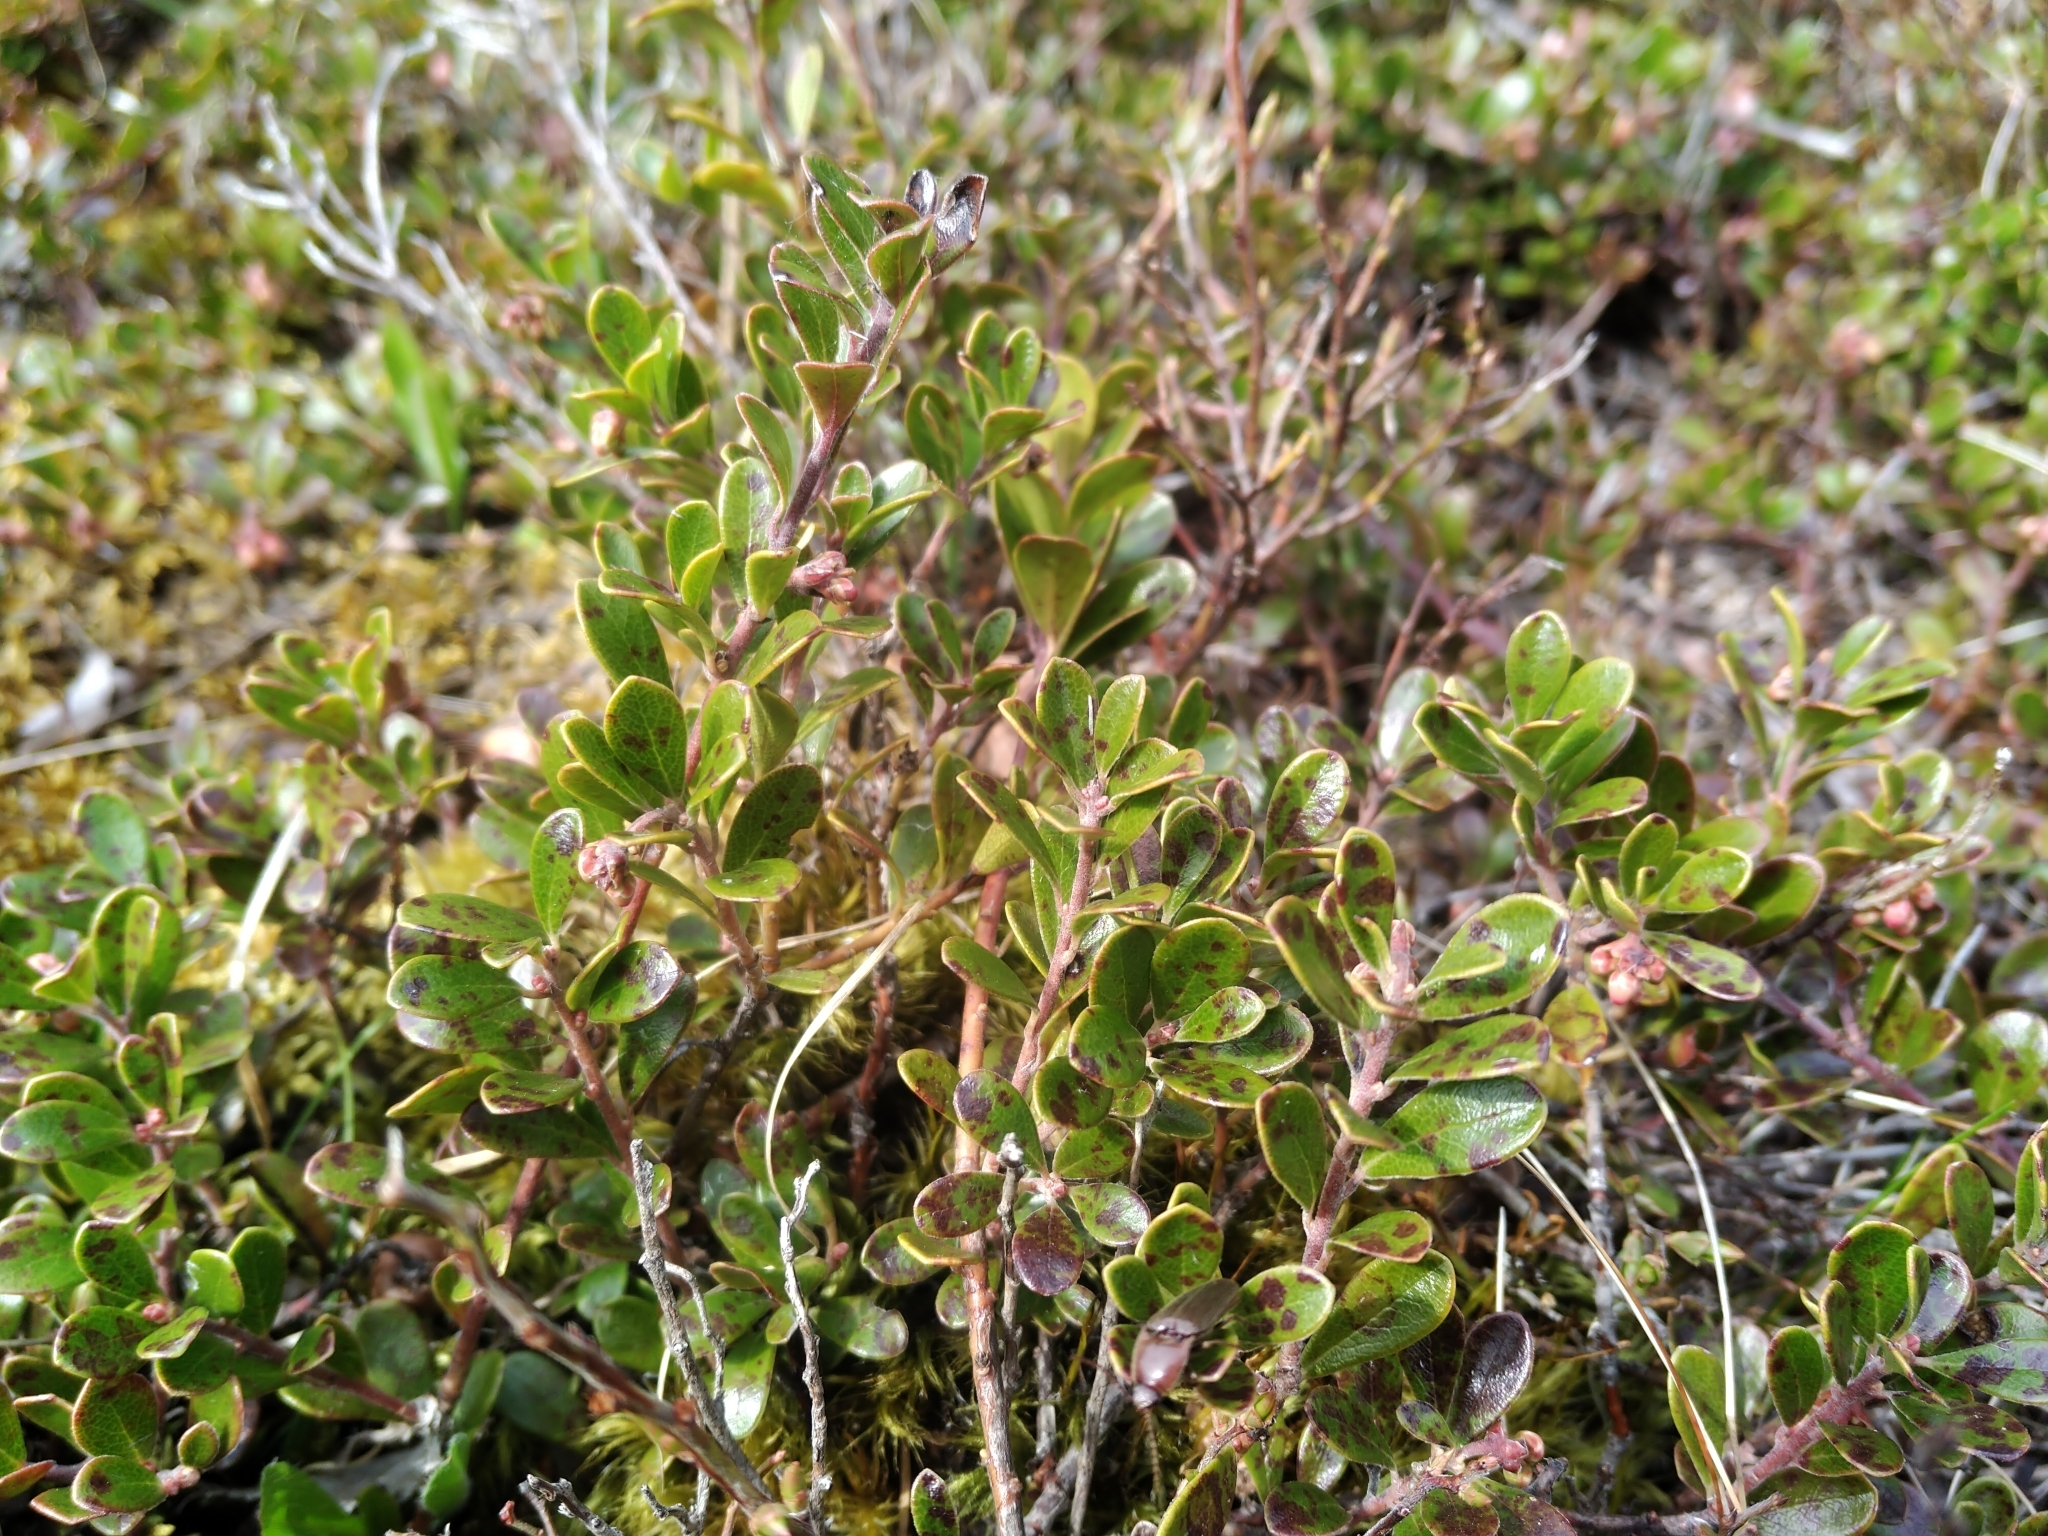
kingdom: Plantae
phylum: Tracheophyta
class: Magnoliopsida
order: Ericales
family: Ericaceae
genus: Arctostaphylos
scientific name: Arctostaphylos uva-ursi
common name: Bearberry
